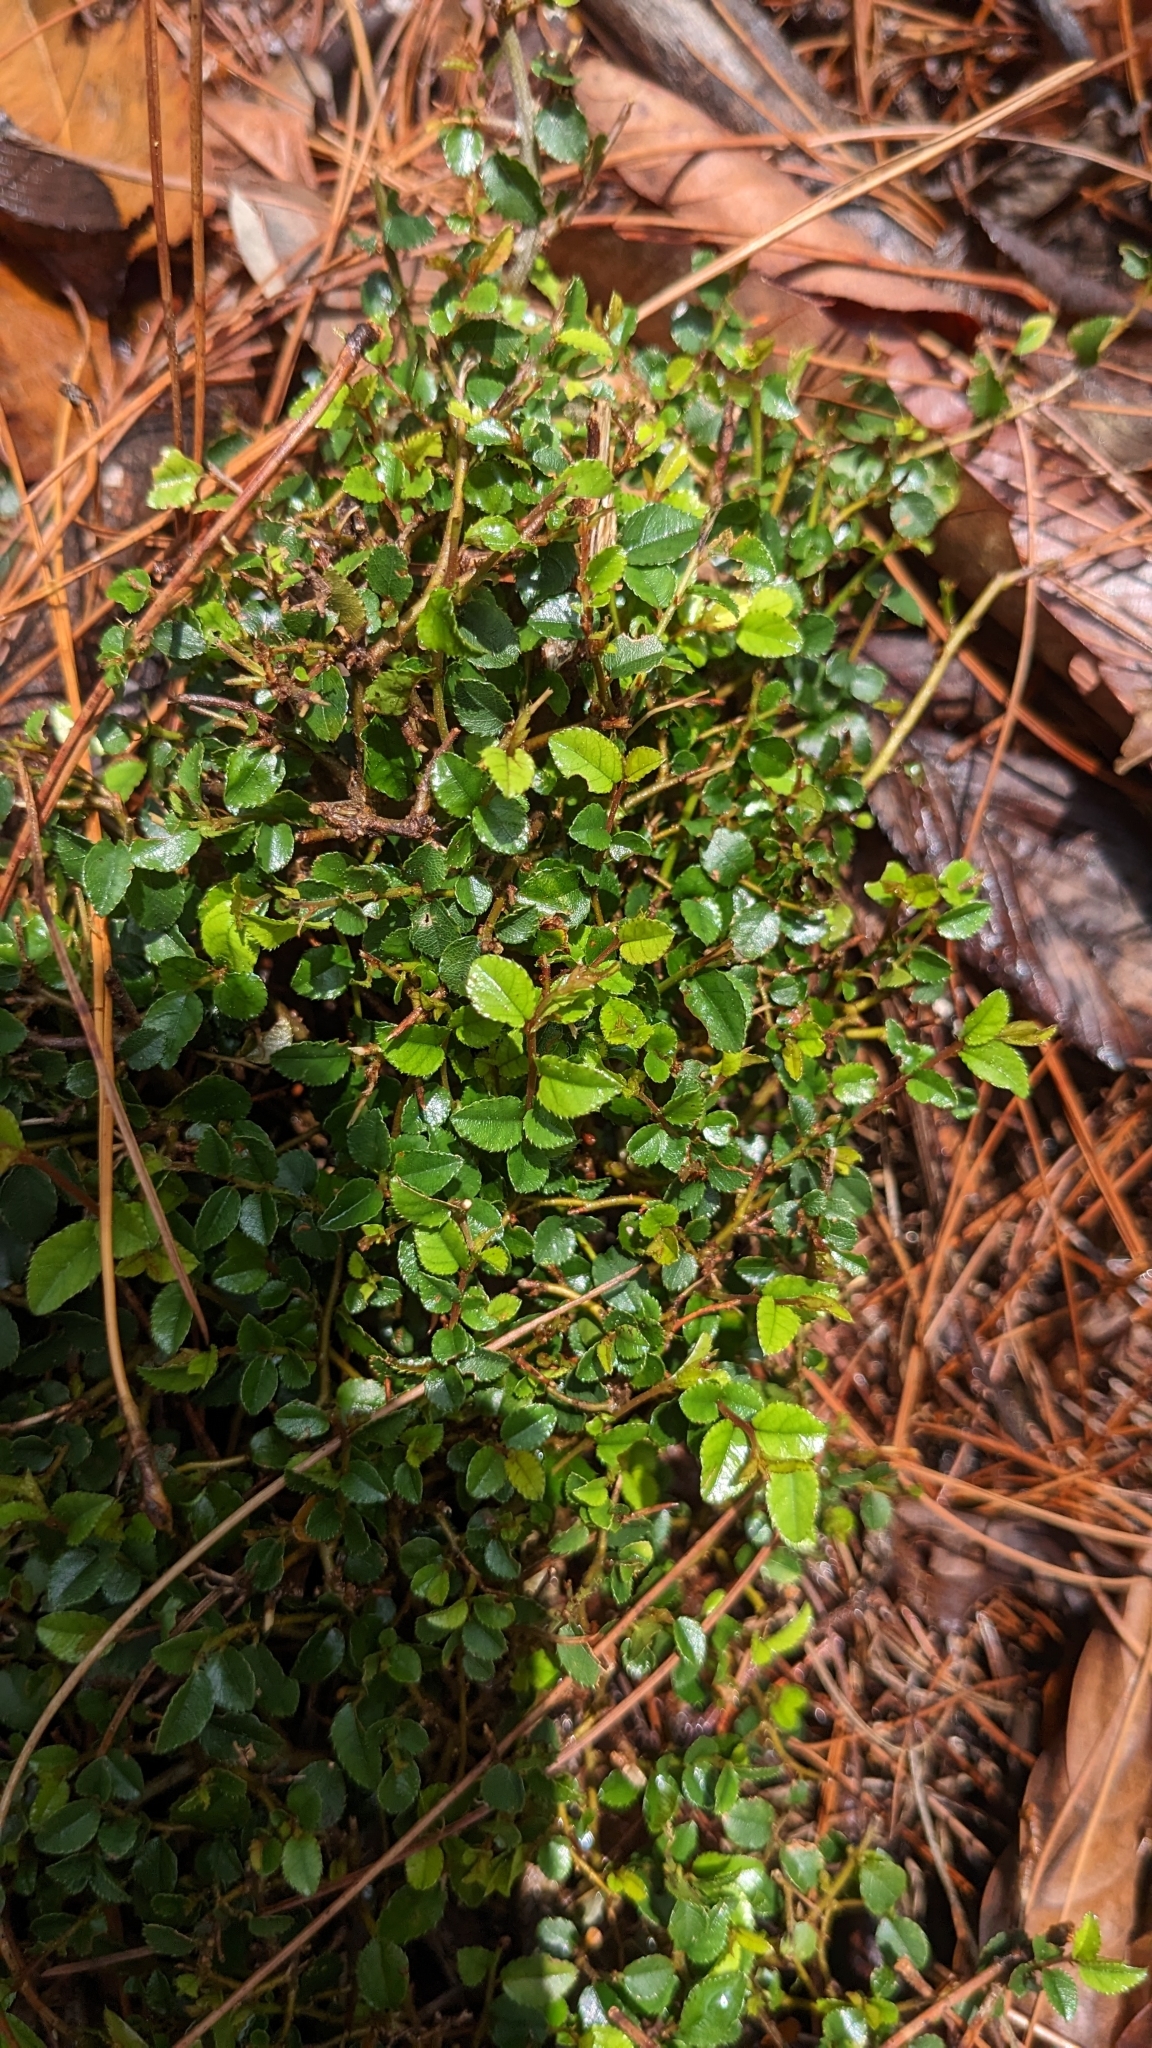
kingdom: Plantae
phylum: Tracheophyta
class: Magnoliopsida
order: Ericales
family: Pentaphylacaceae
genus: Eurya
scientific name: Eurya crenatifolia
